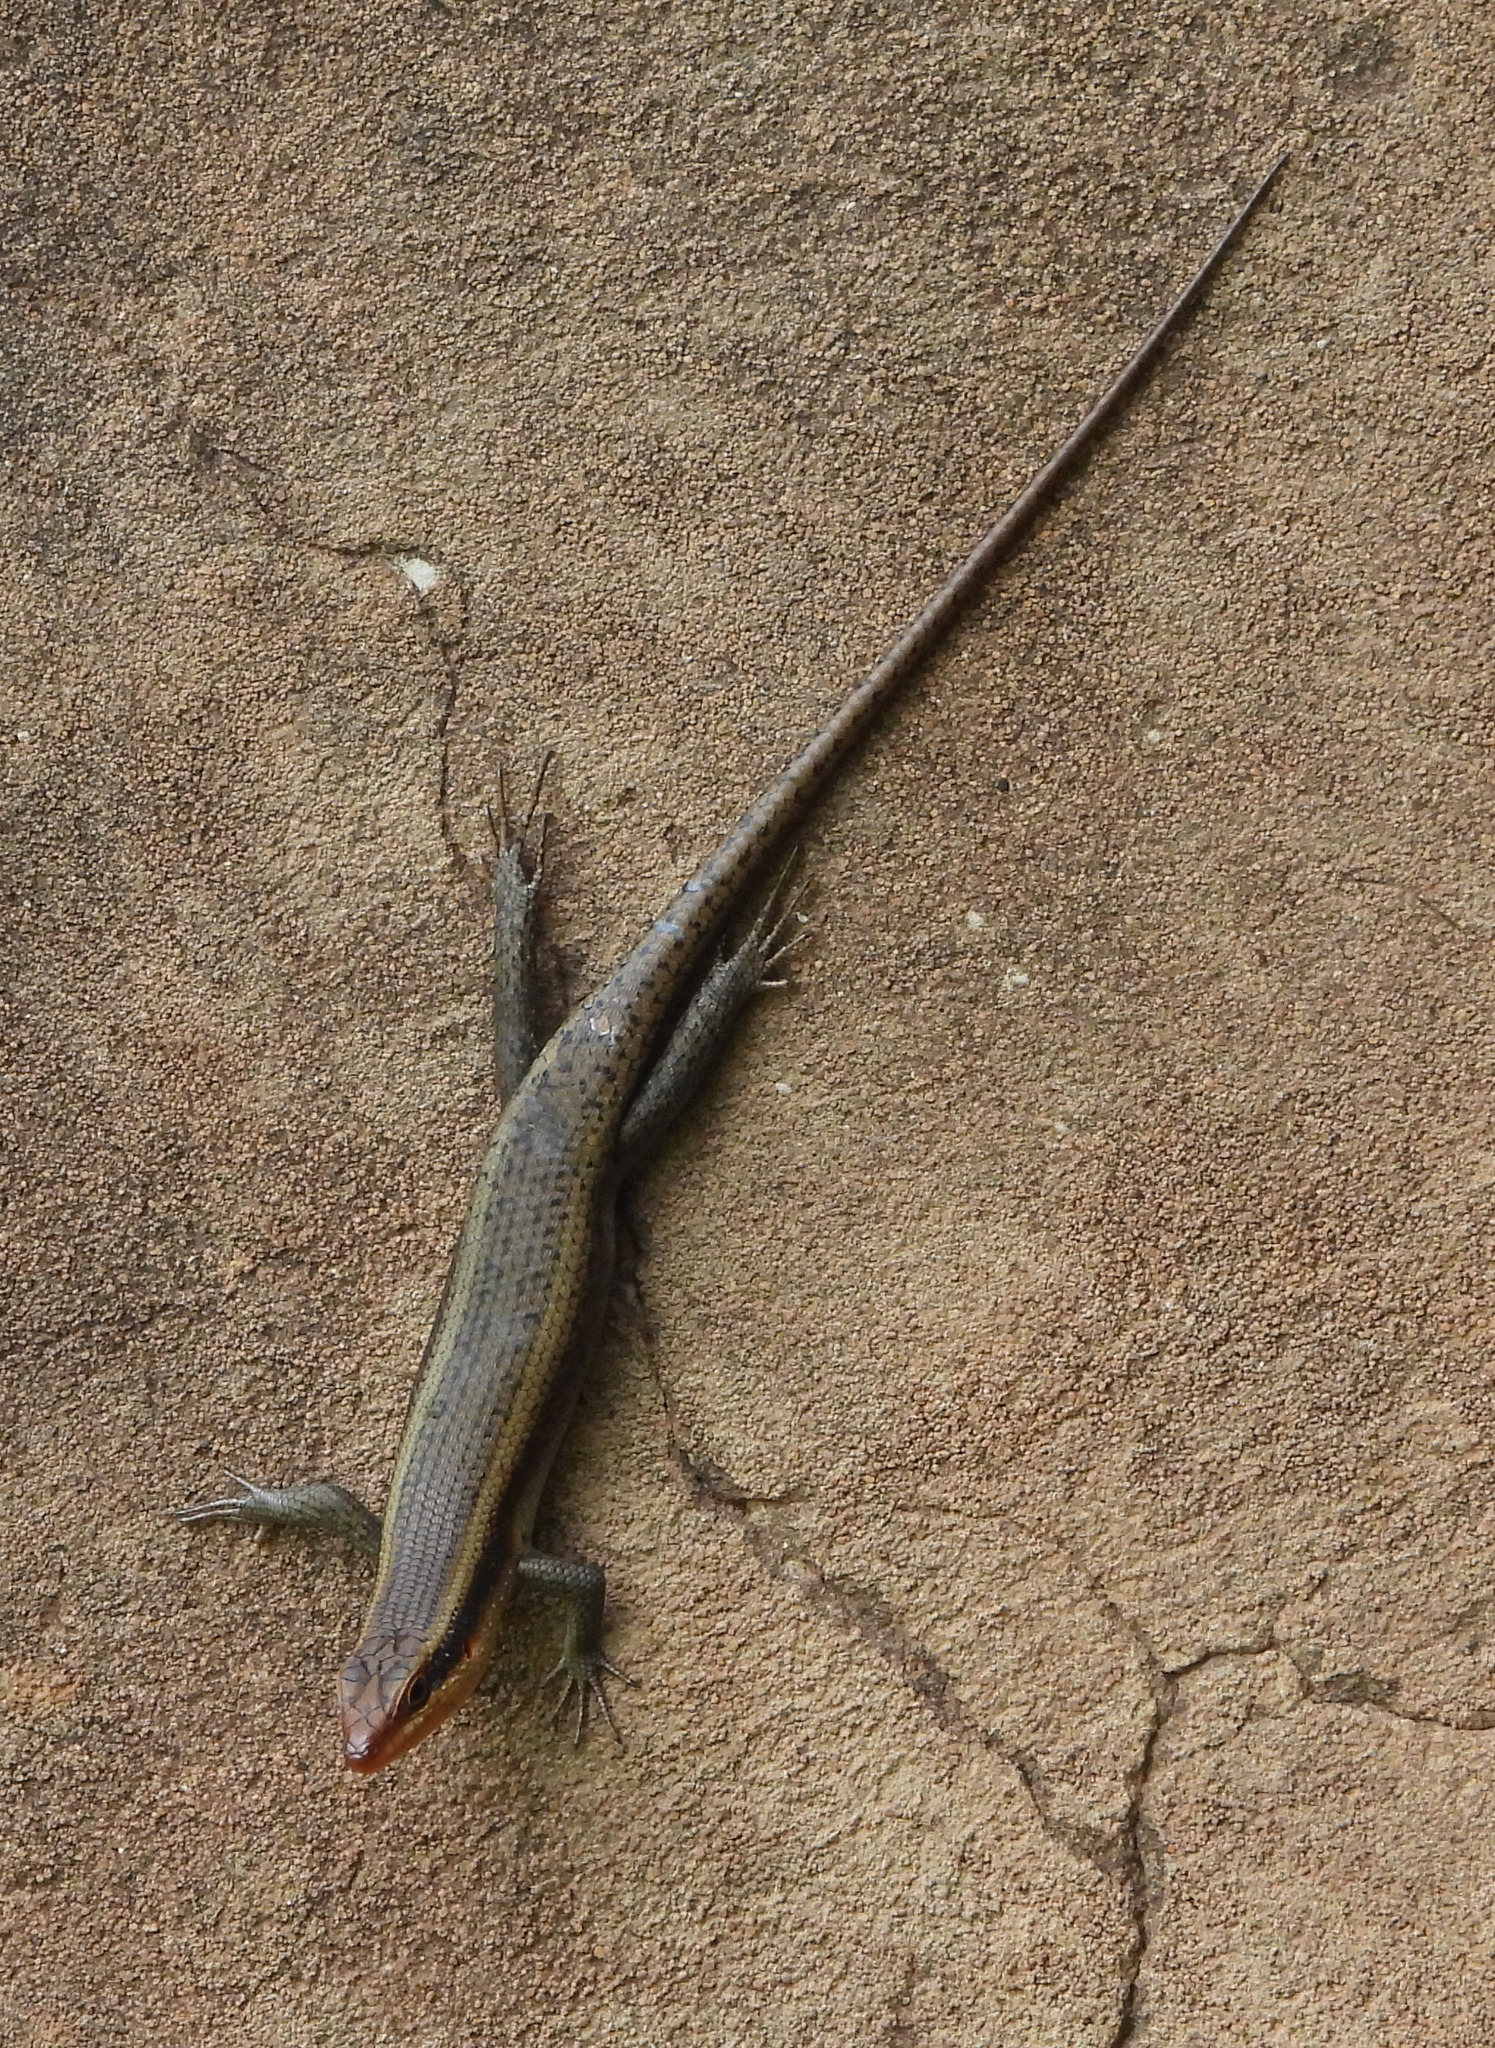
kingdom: Animalia
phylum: Chordata
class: Squamata
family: Scincidae
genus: Trachylepis
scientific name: Trachylepis wahlbergii
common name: Wahlberg’s striped skink
